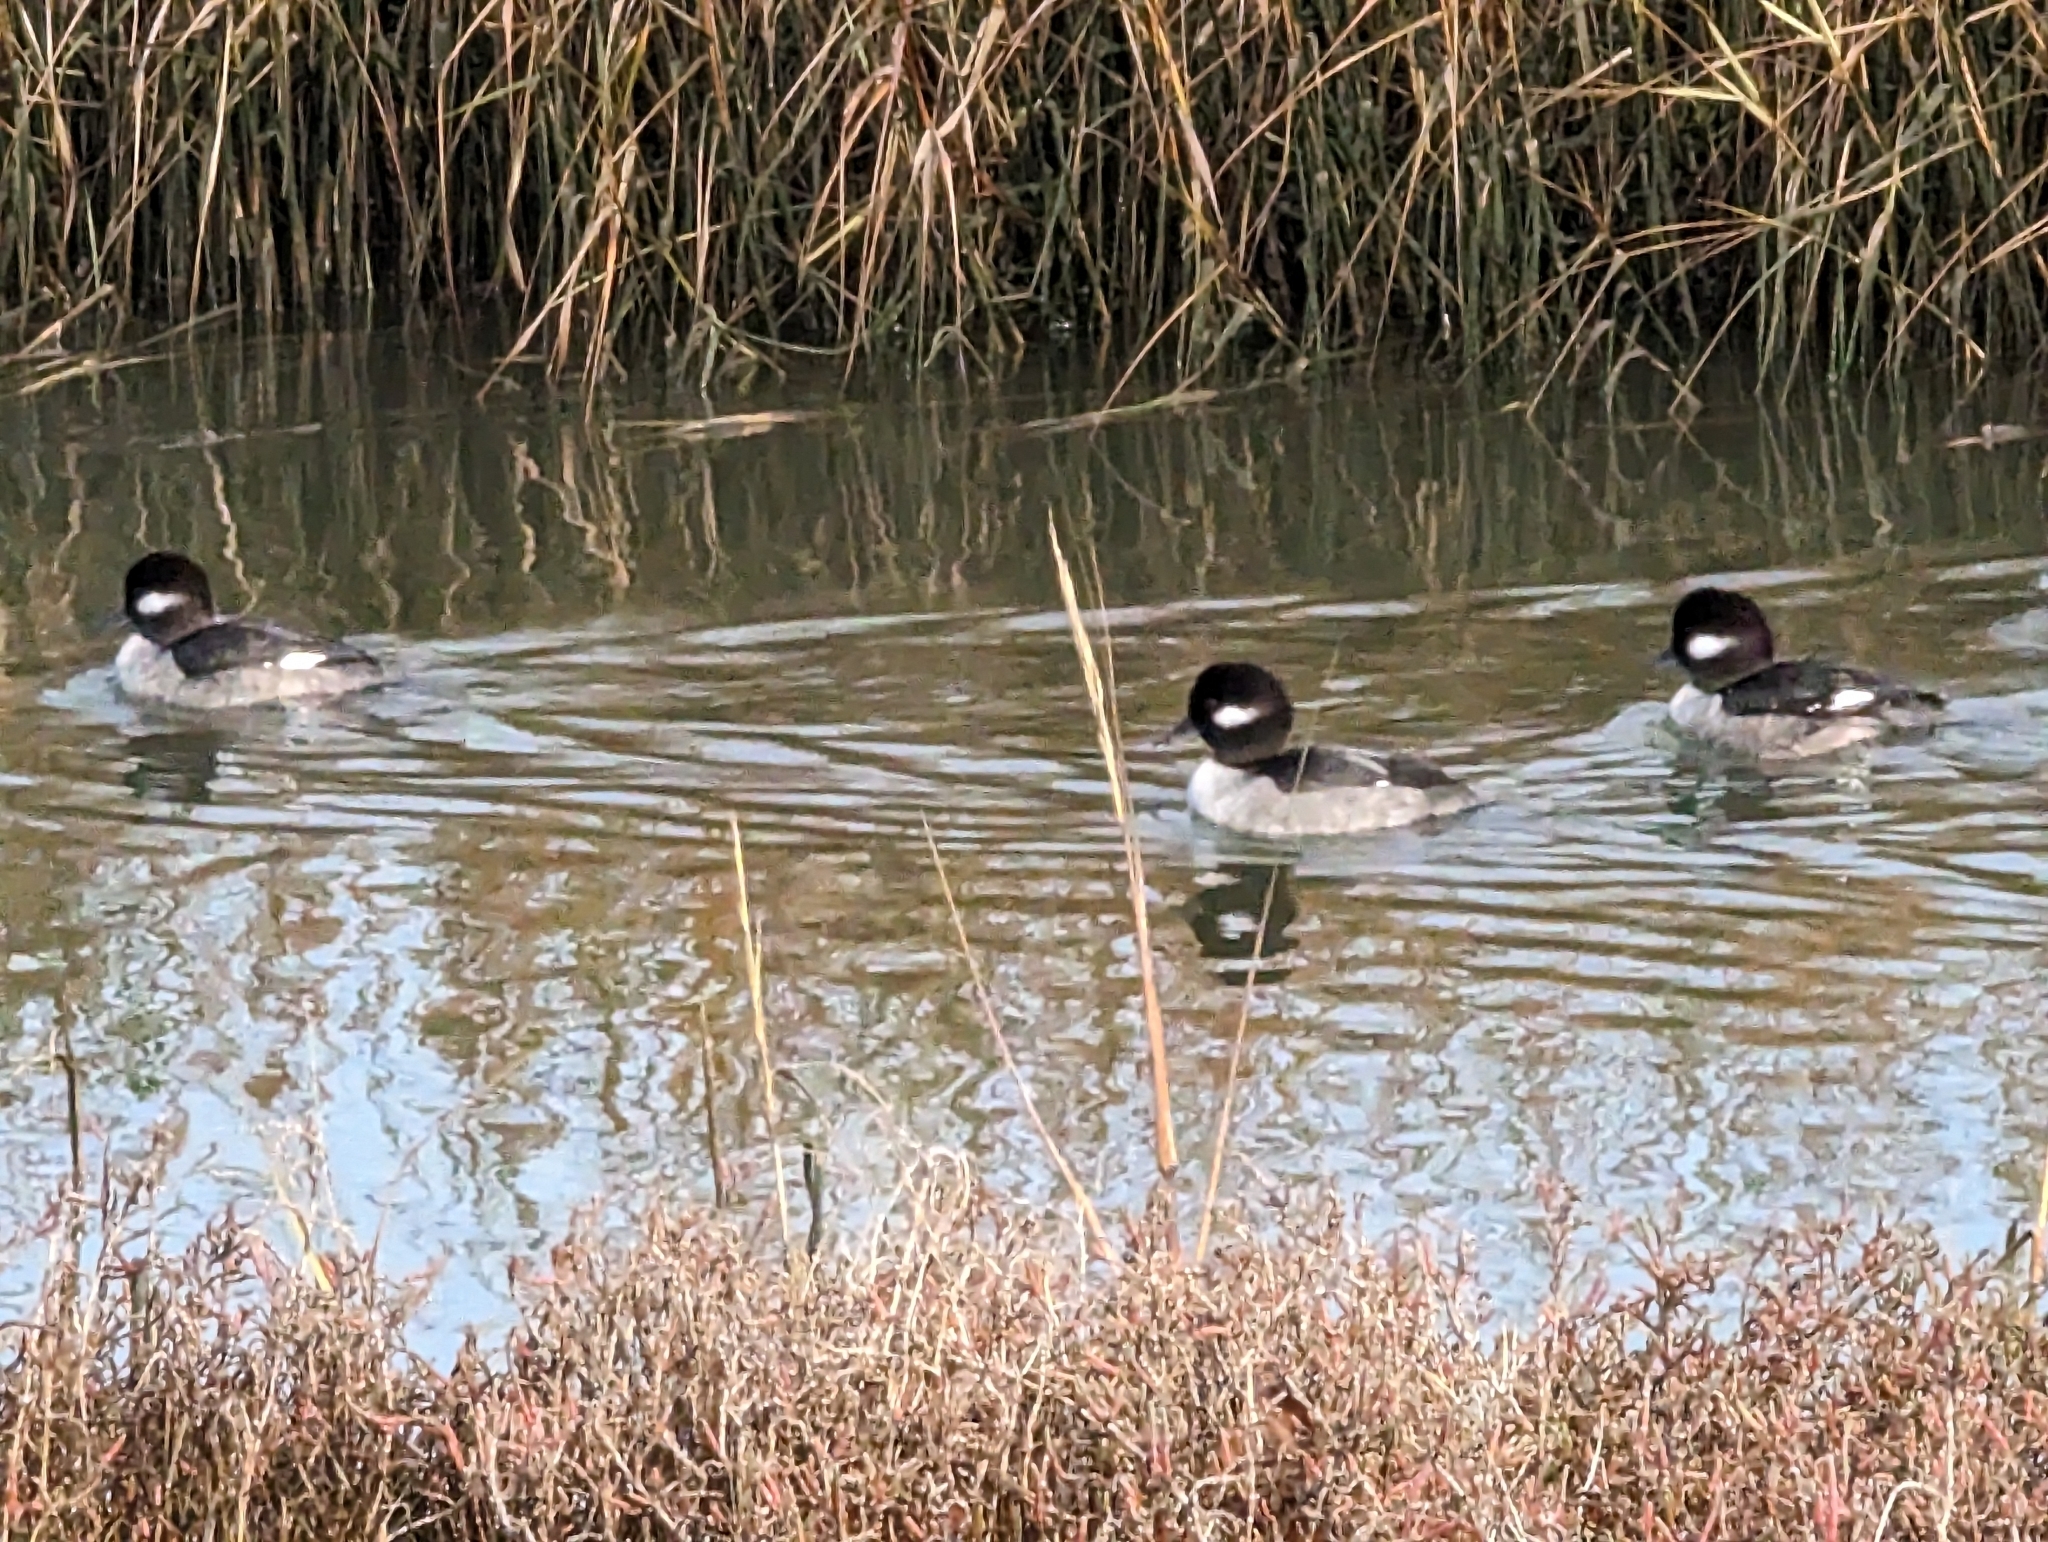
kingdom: Animalia
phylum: Chordata
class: Aves
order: Anseriformes
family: Anatidae
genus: Bucephala
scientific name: Bucephala albeola
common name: Bufflehead
